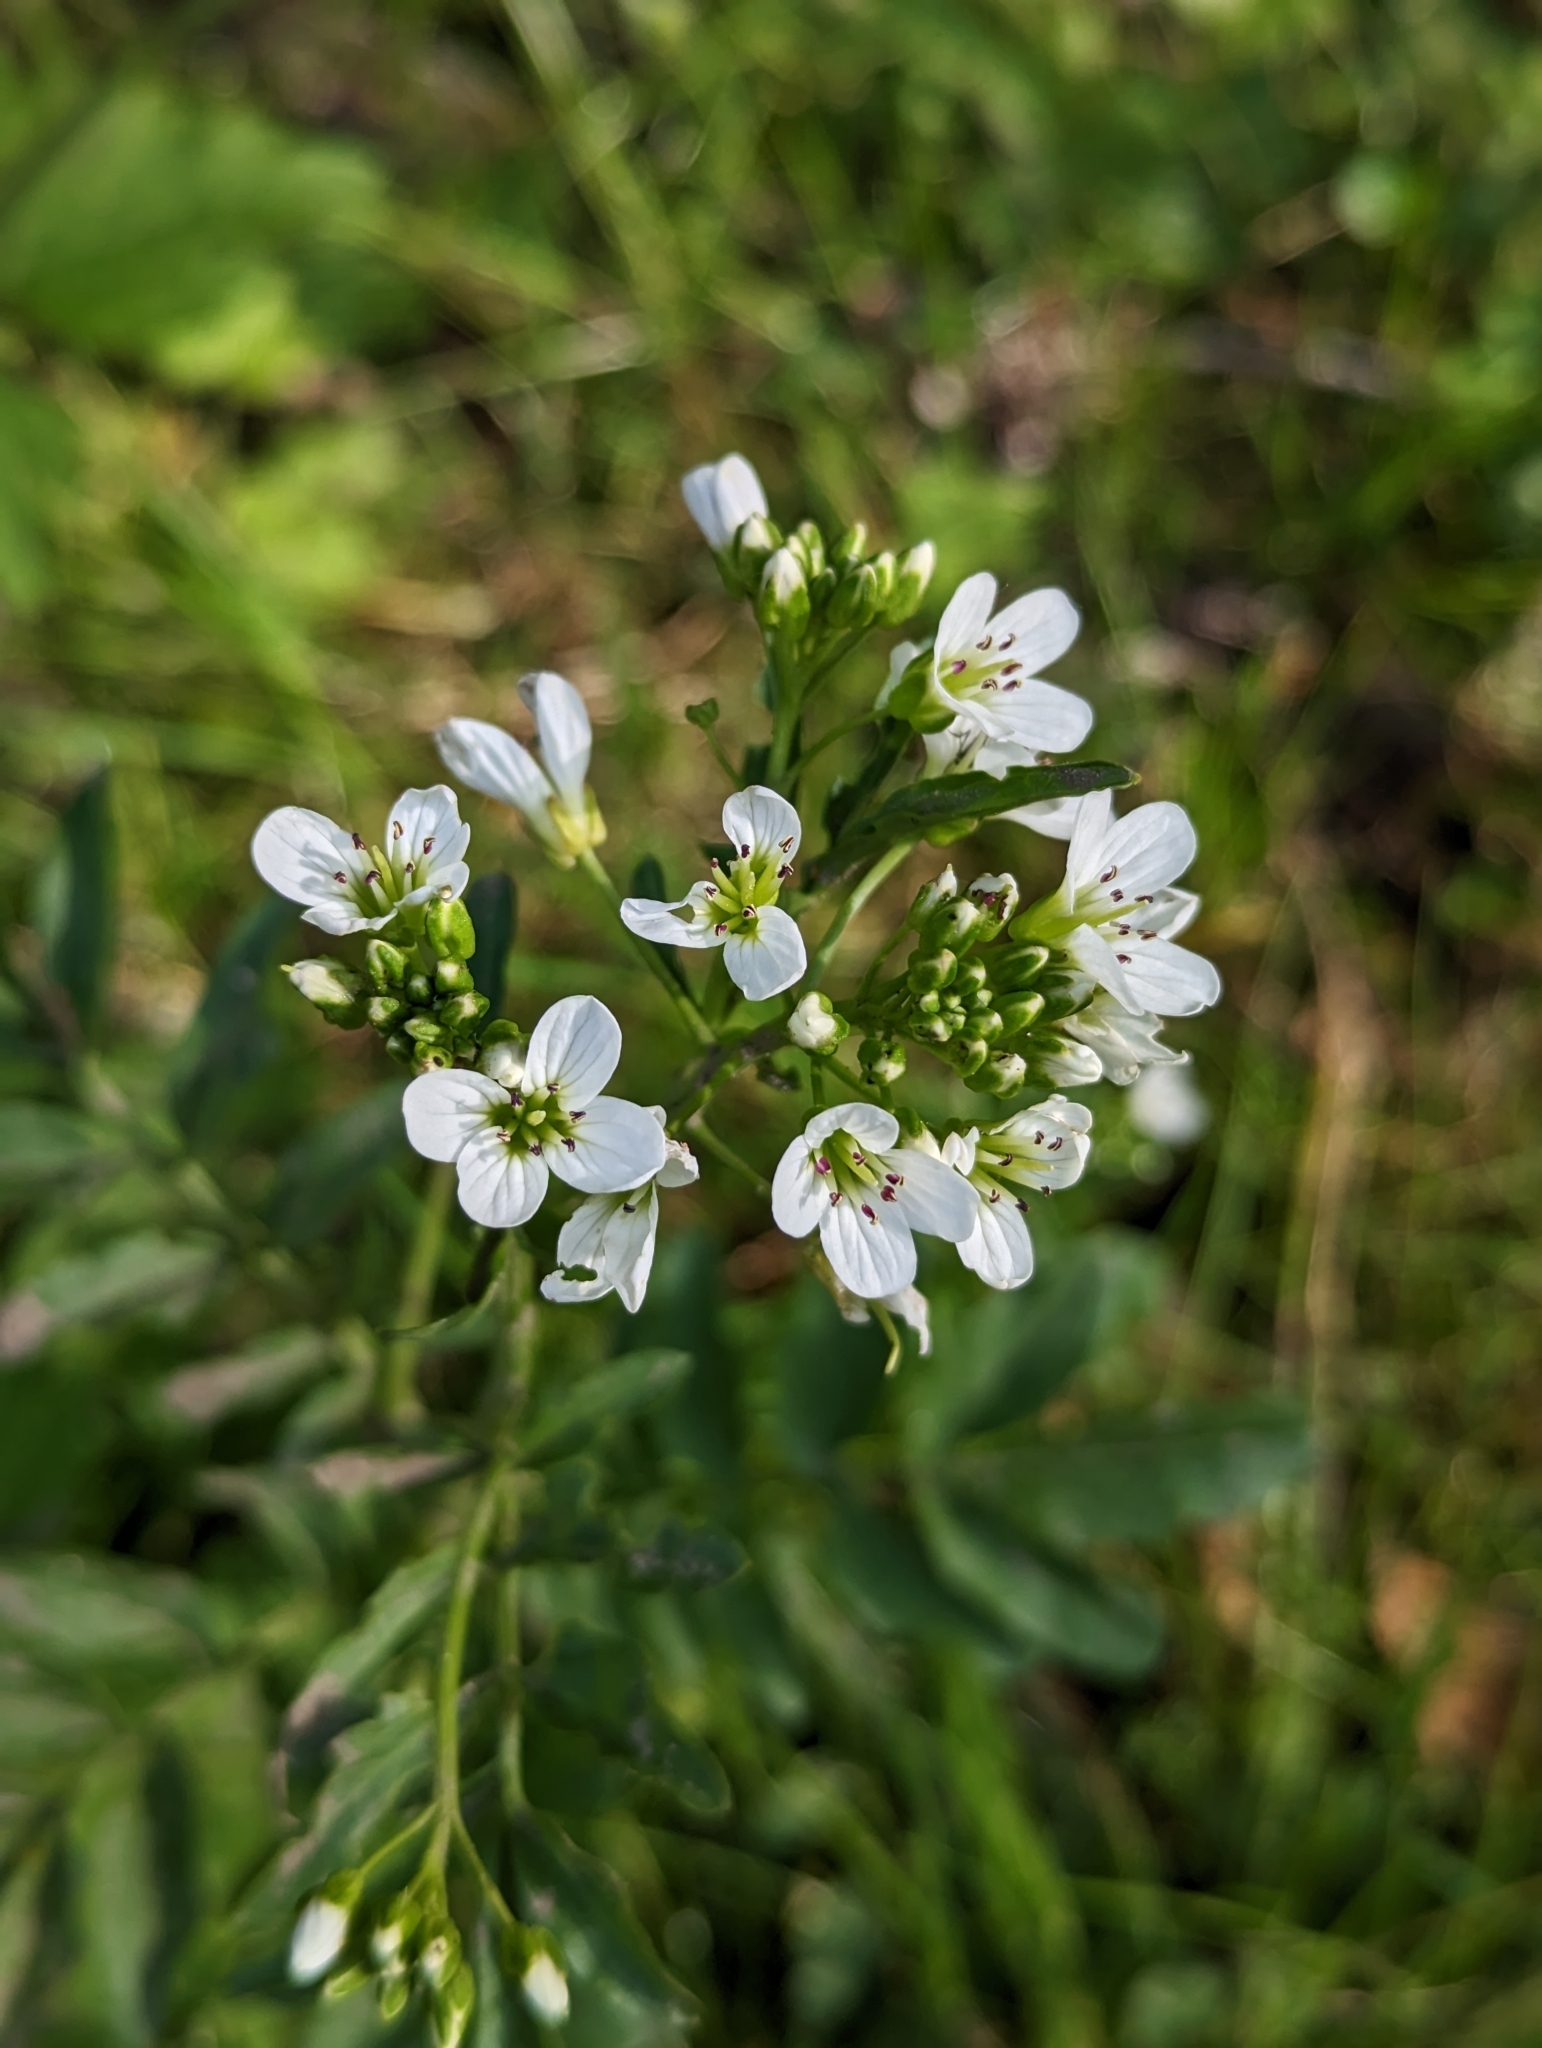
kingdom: Plantae
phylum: Tracheophyta
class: Magnoliopsida
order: Brassicales
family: Brassicaceae
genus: Cardamine
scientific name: Cardamine amara
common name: Large bitter-cress
